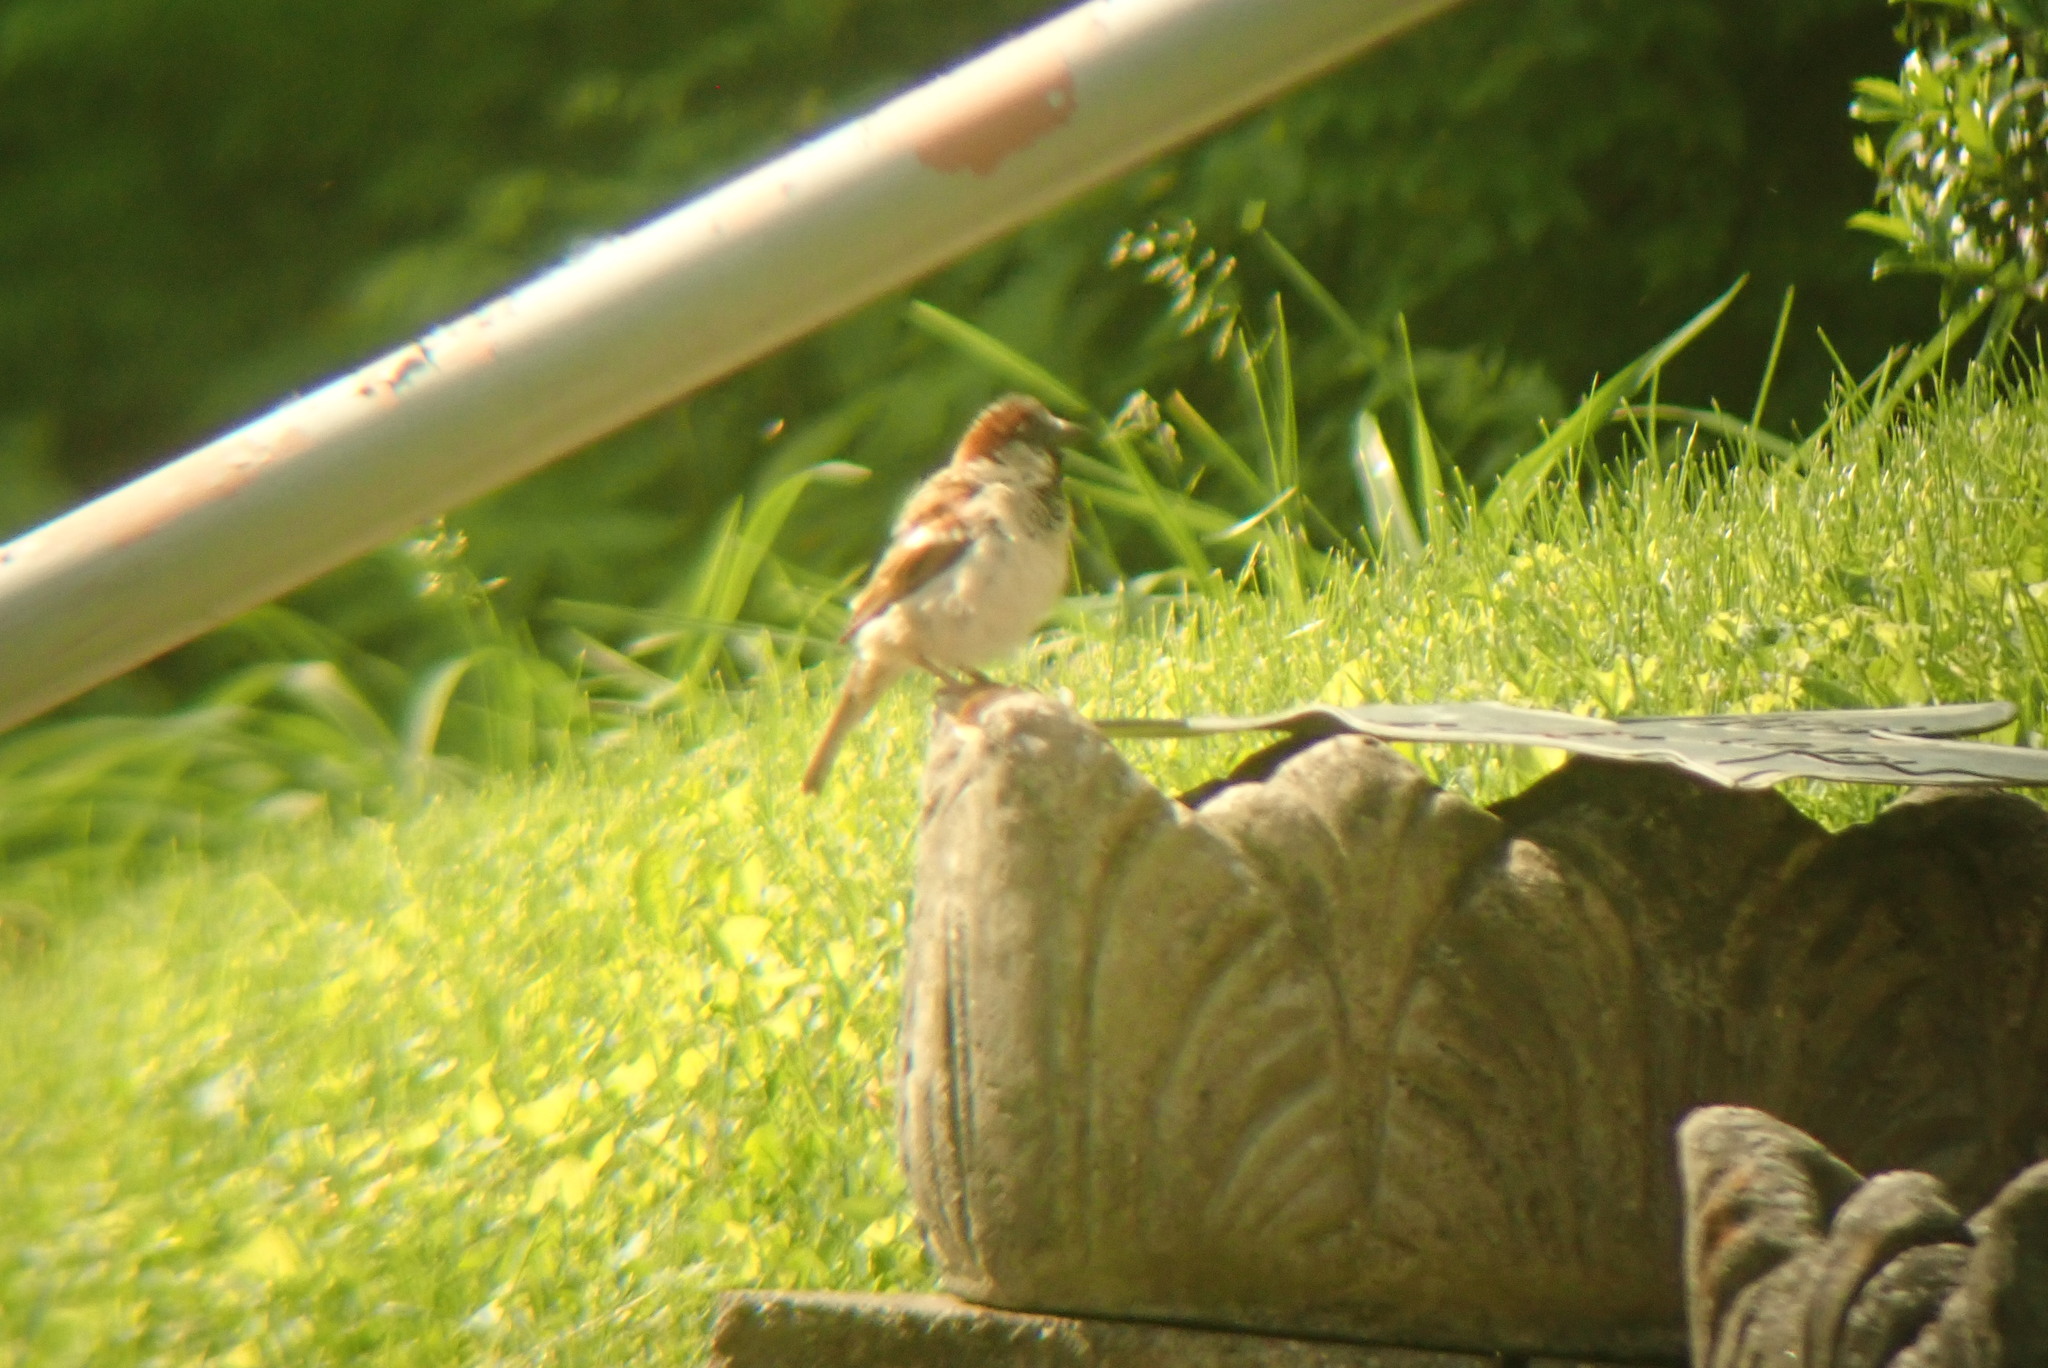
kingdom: Animalia
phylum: Chordata
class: Aves
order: Passeriformes
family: Passeridae
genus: Passer
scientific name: Passer domesticus
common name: House sparrow
